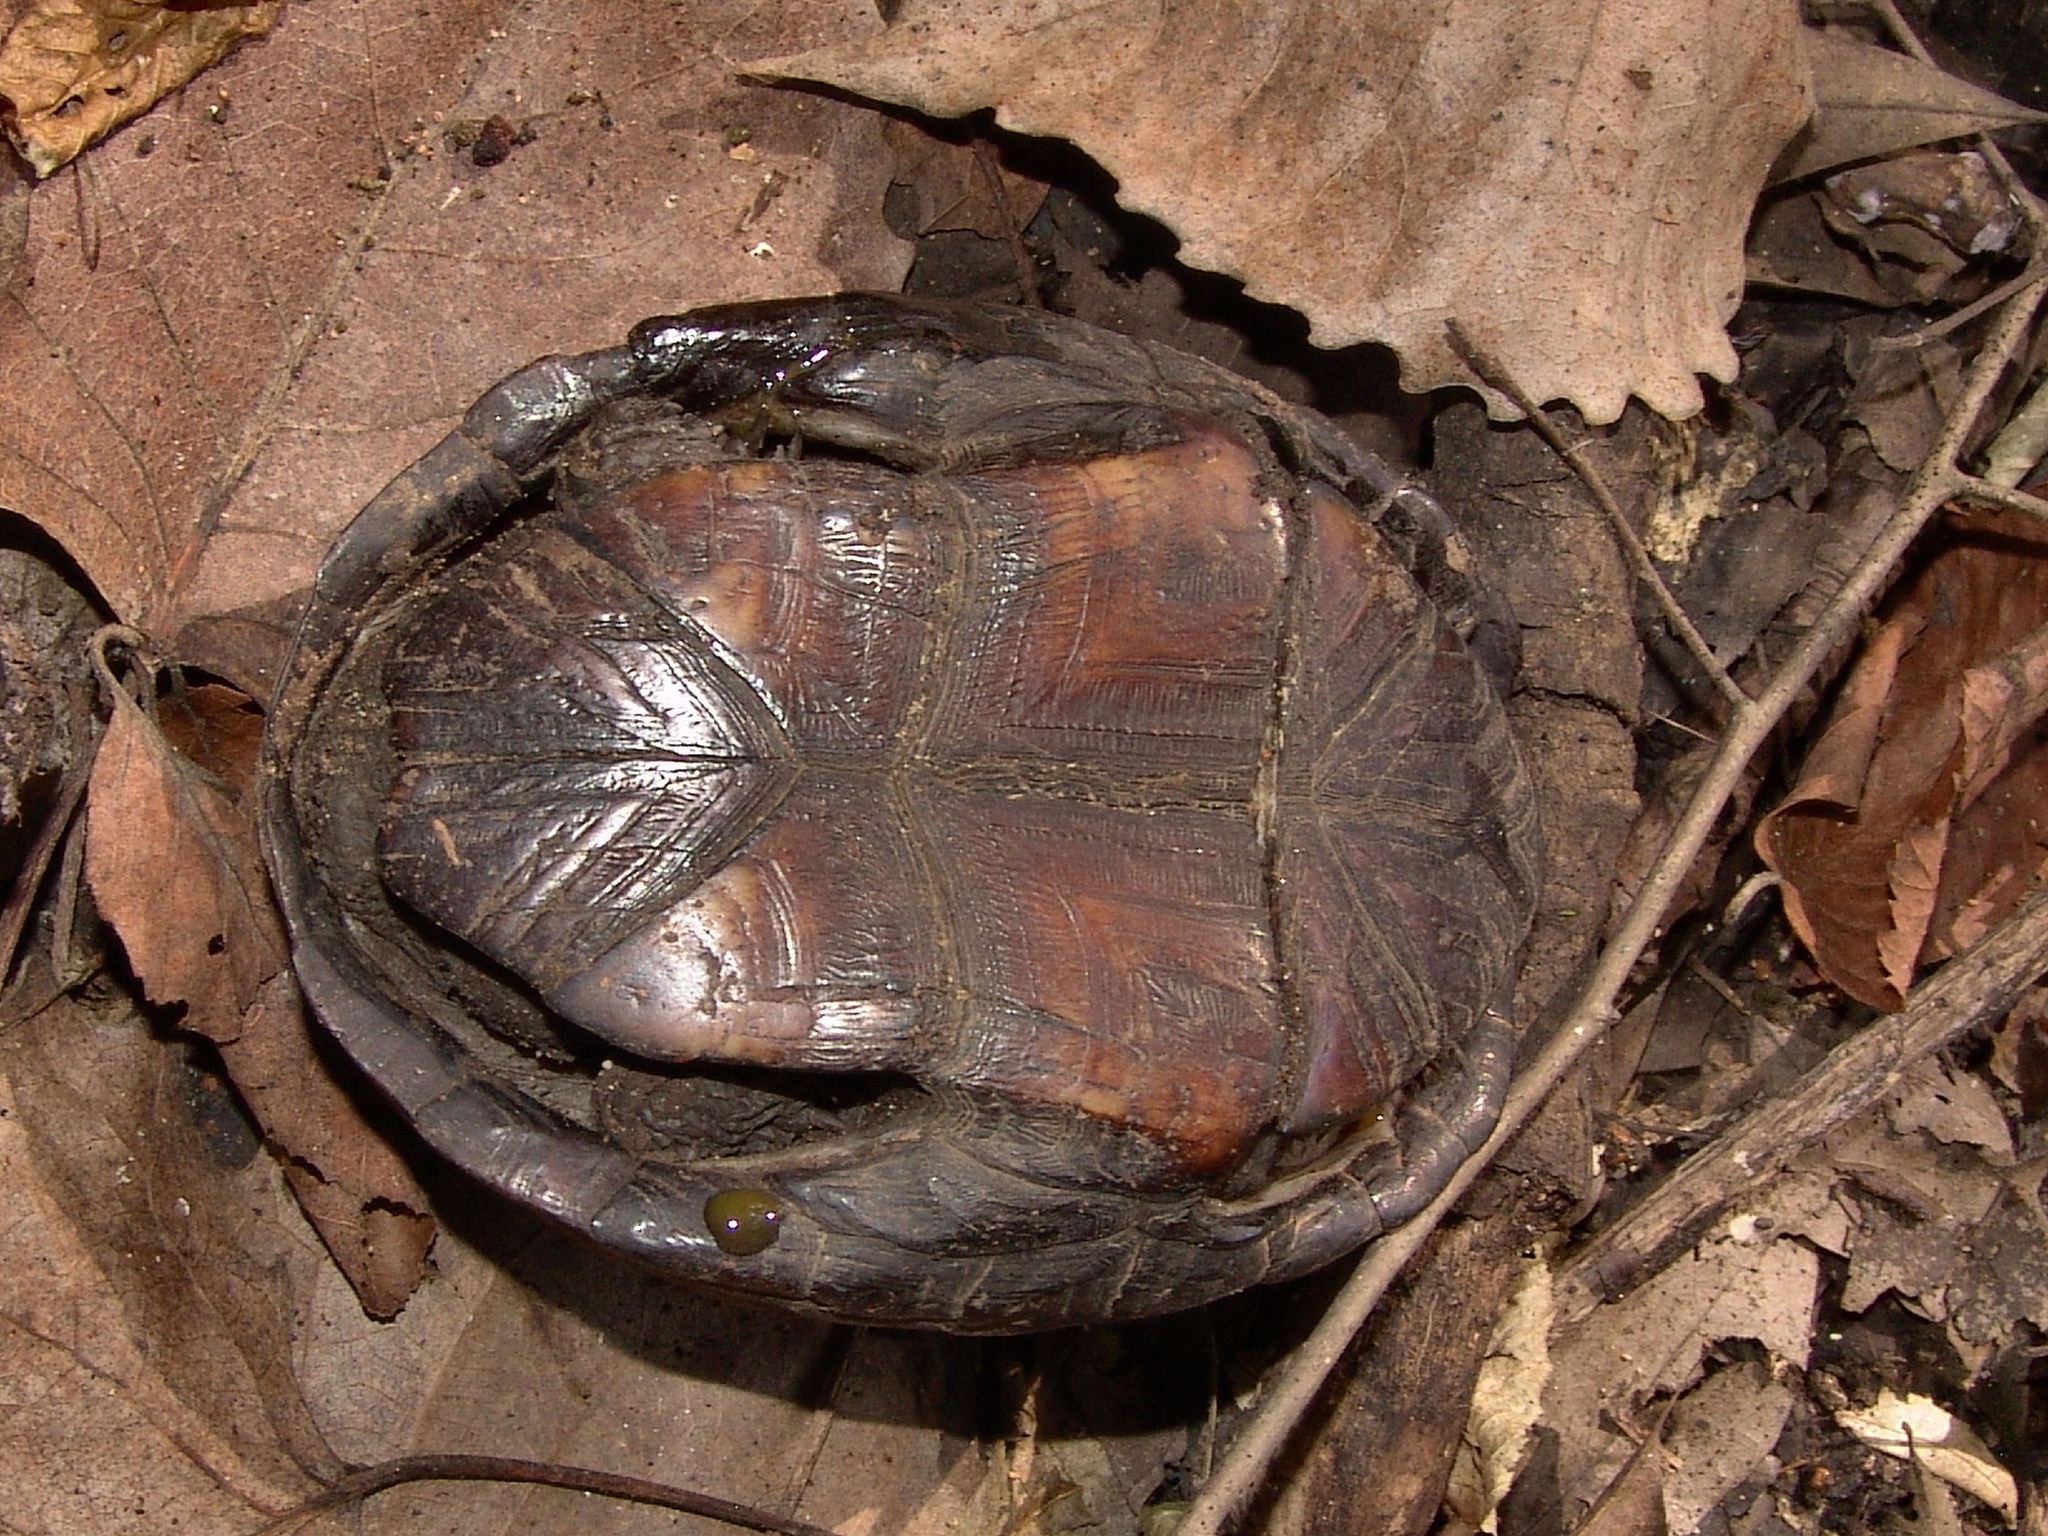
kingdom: Animalia
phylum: Chordata
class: Testudines
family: Kinosternidae
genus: Kinosternon
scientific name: Kinosternon subrubrum
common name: Eastern mud turtle
